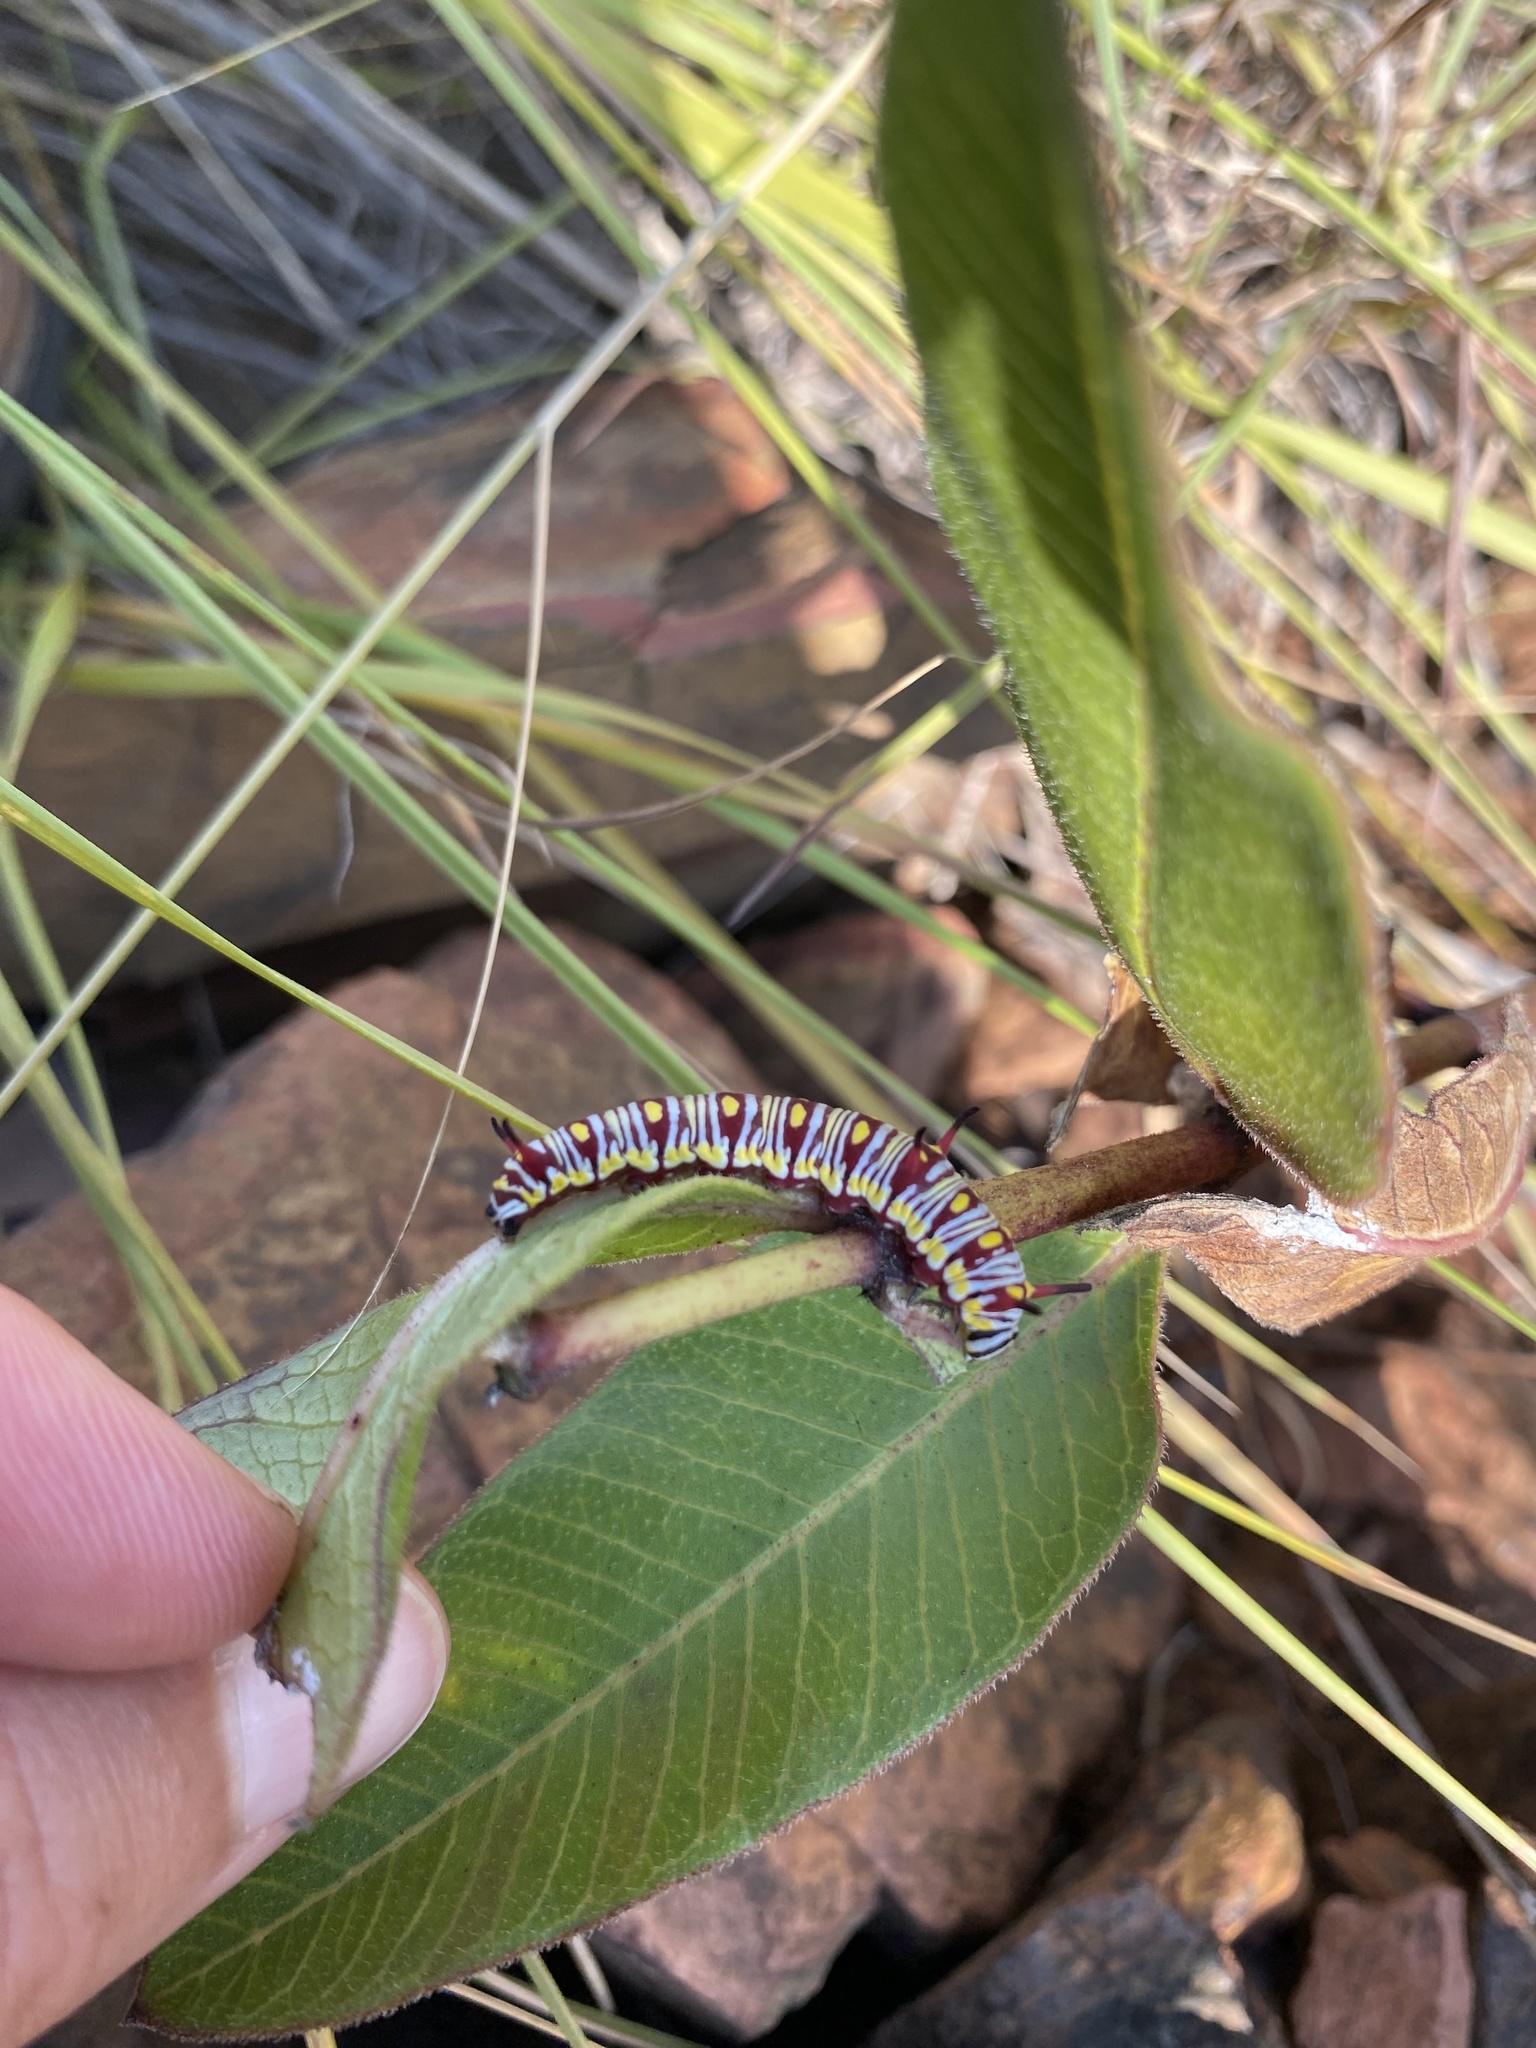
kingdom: Animalia
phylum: Arthropoda
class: Insecta
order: Lepidoptera
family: Nymphalidae
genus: Danaus
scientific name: Danaus chrysippus
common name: Plain tiger
